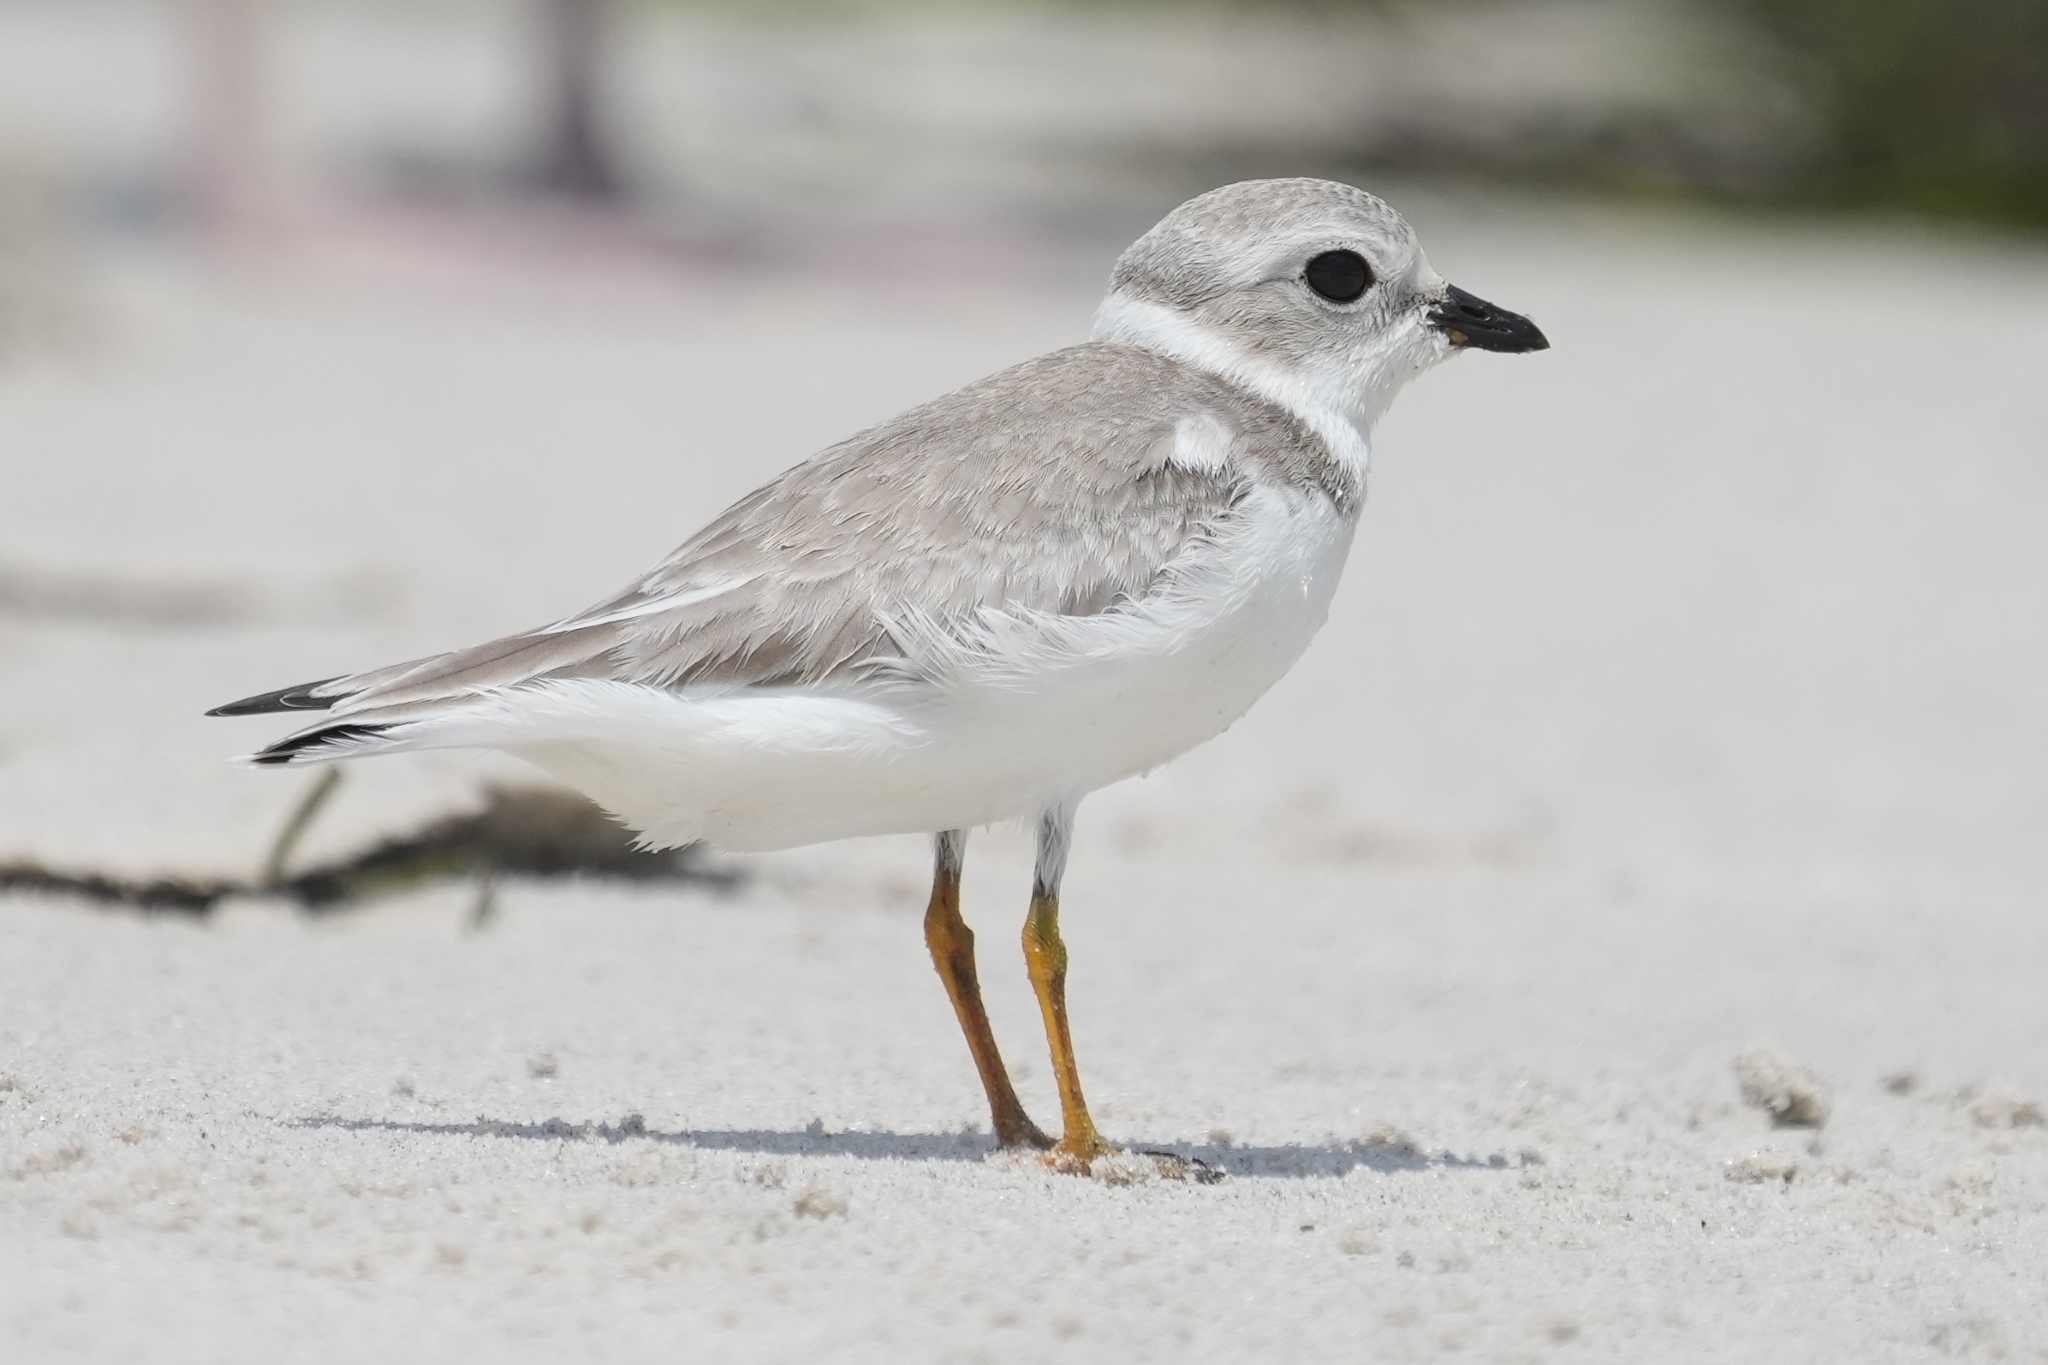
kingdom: Animalia
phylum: Chordata
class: Aves
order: Charadriiformes
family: Charadriidae
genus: Charadrius
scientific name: Charadrius melodus
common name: Piping plover
